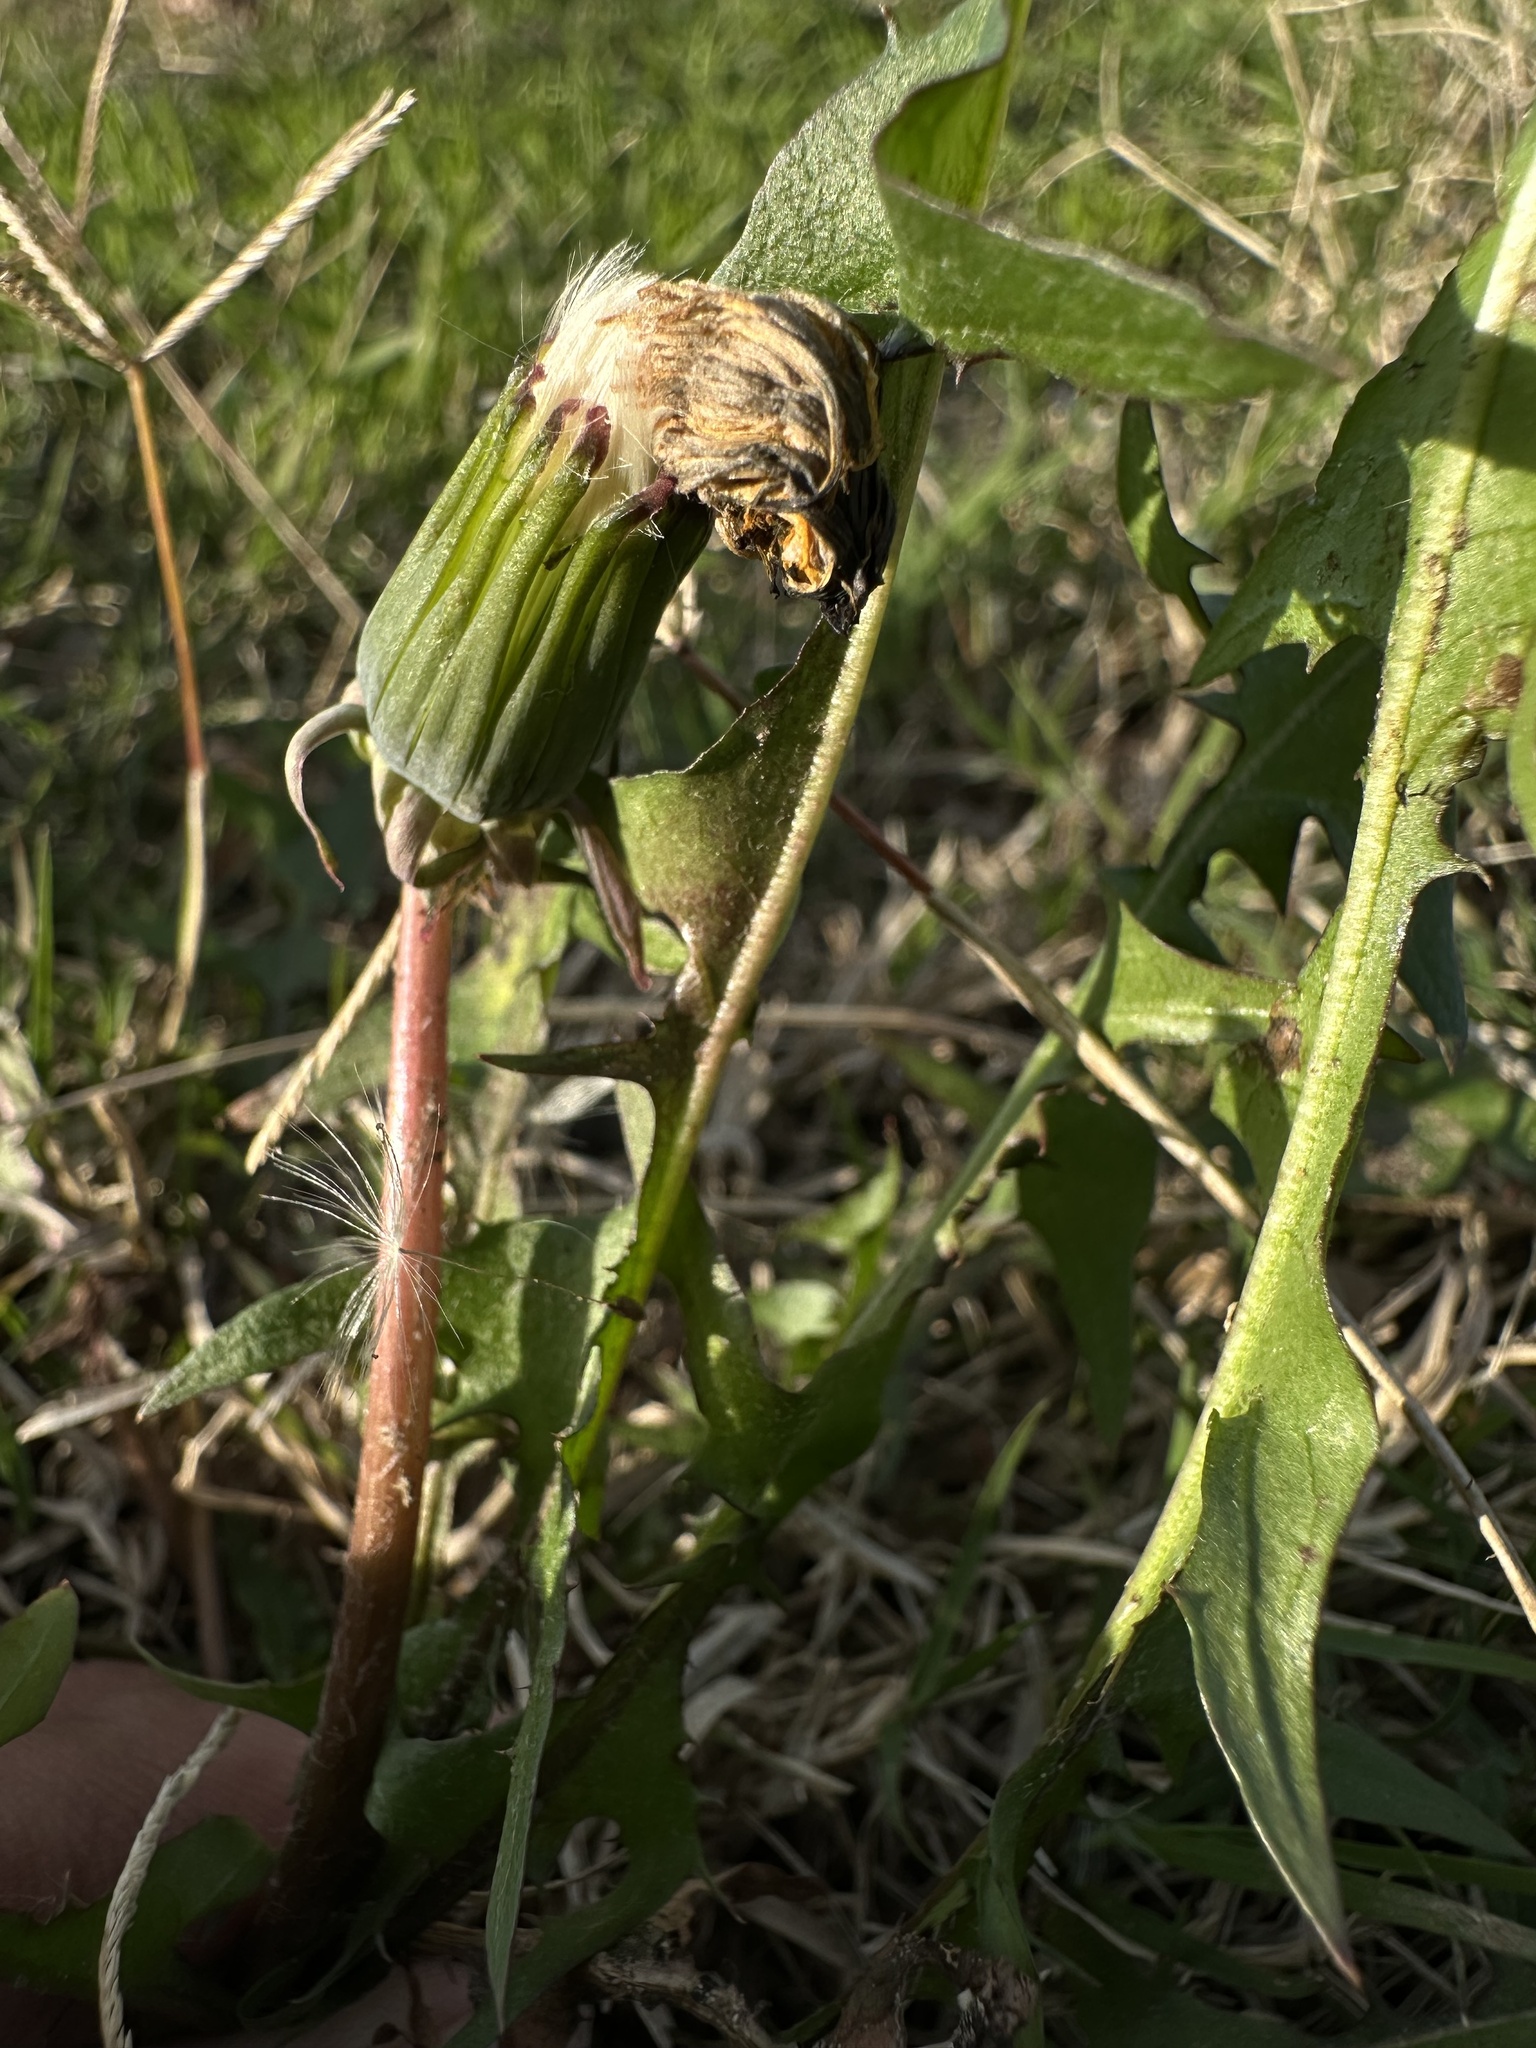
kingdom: Plantae
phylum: Tracheophyta
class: Magnoliopsida
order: Asterales
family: Asteraceae
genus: Taraxacum
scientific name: Taraxacum officinale
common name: Common dandelion
